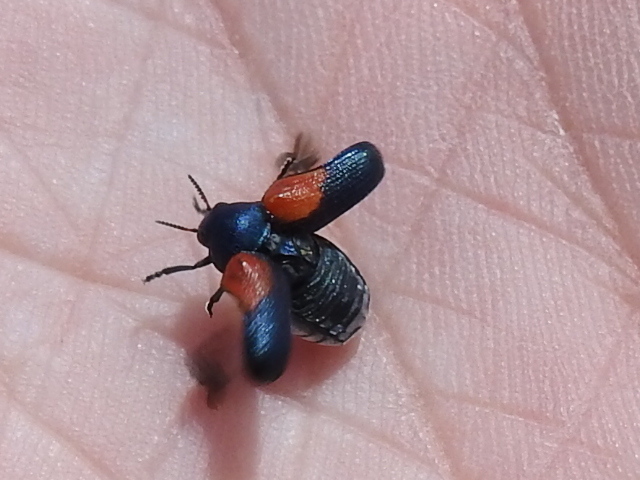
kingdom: Animalia
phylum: Arthropoda
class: Insecta
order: Coleoptera
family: Chrysomelidae
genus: Saxinis
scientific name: Saxinis sonorensis
